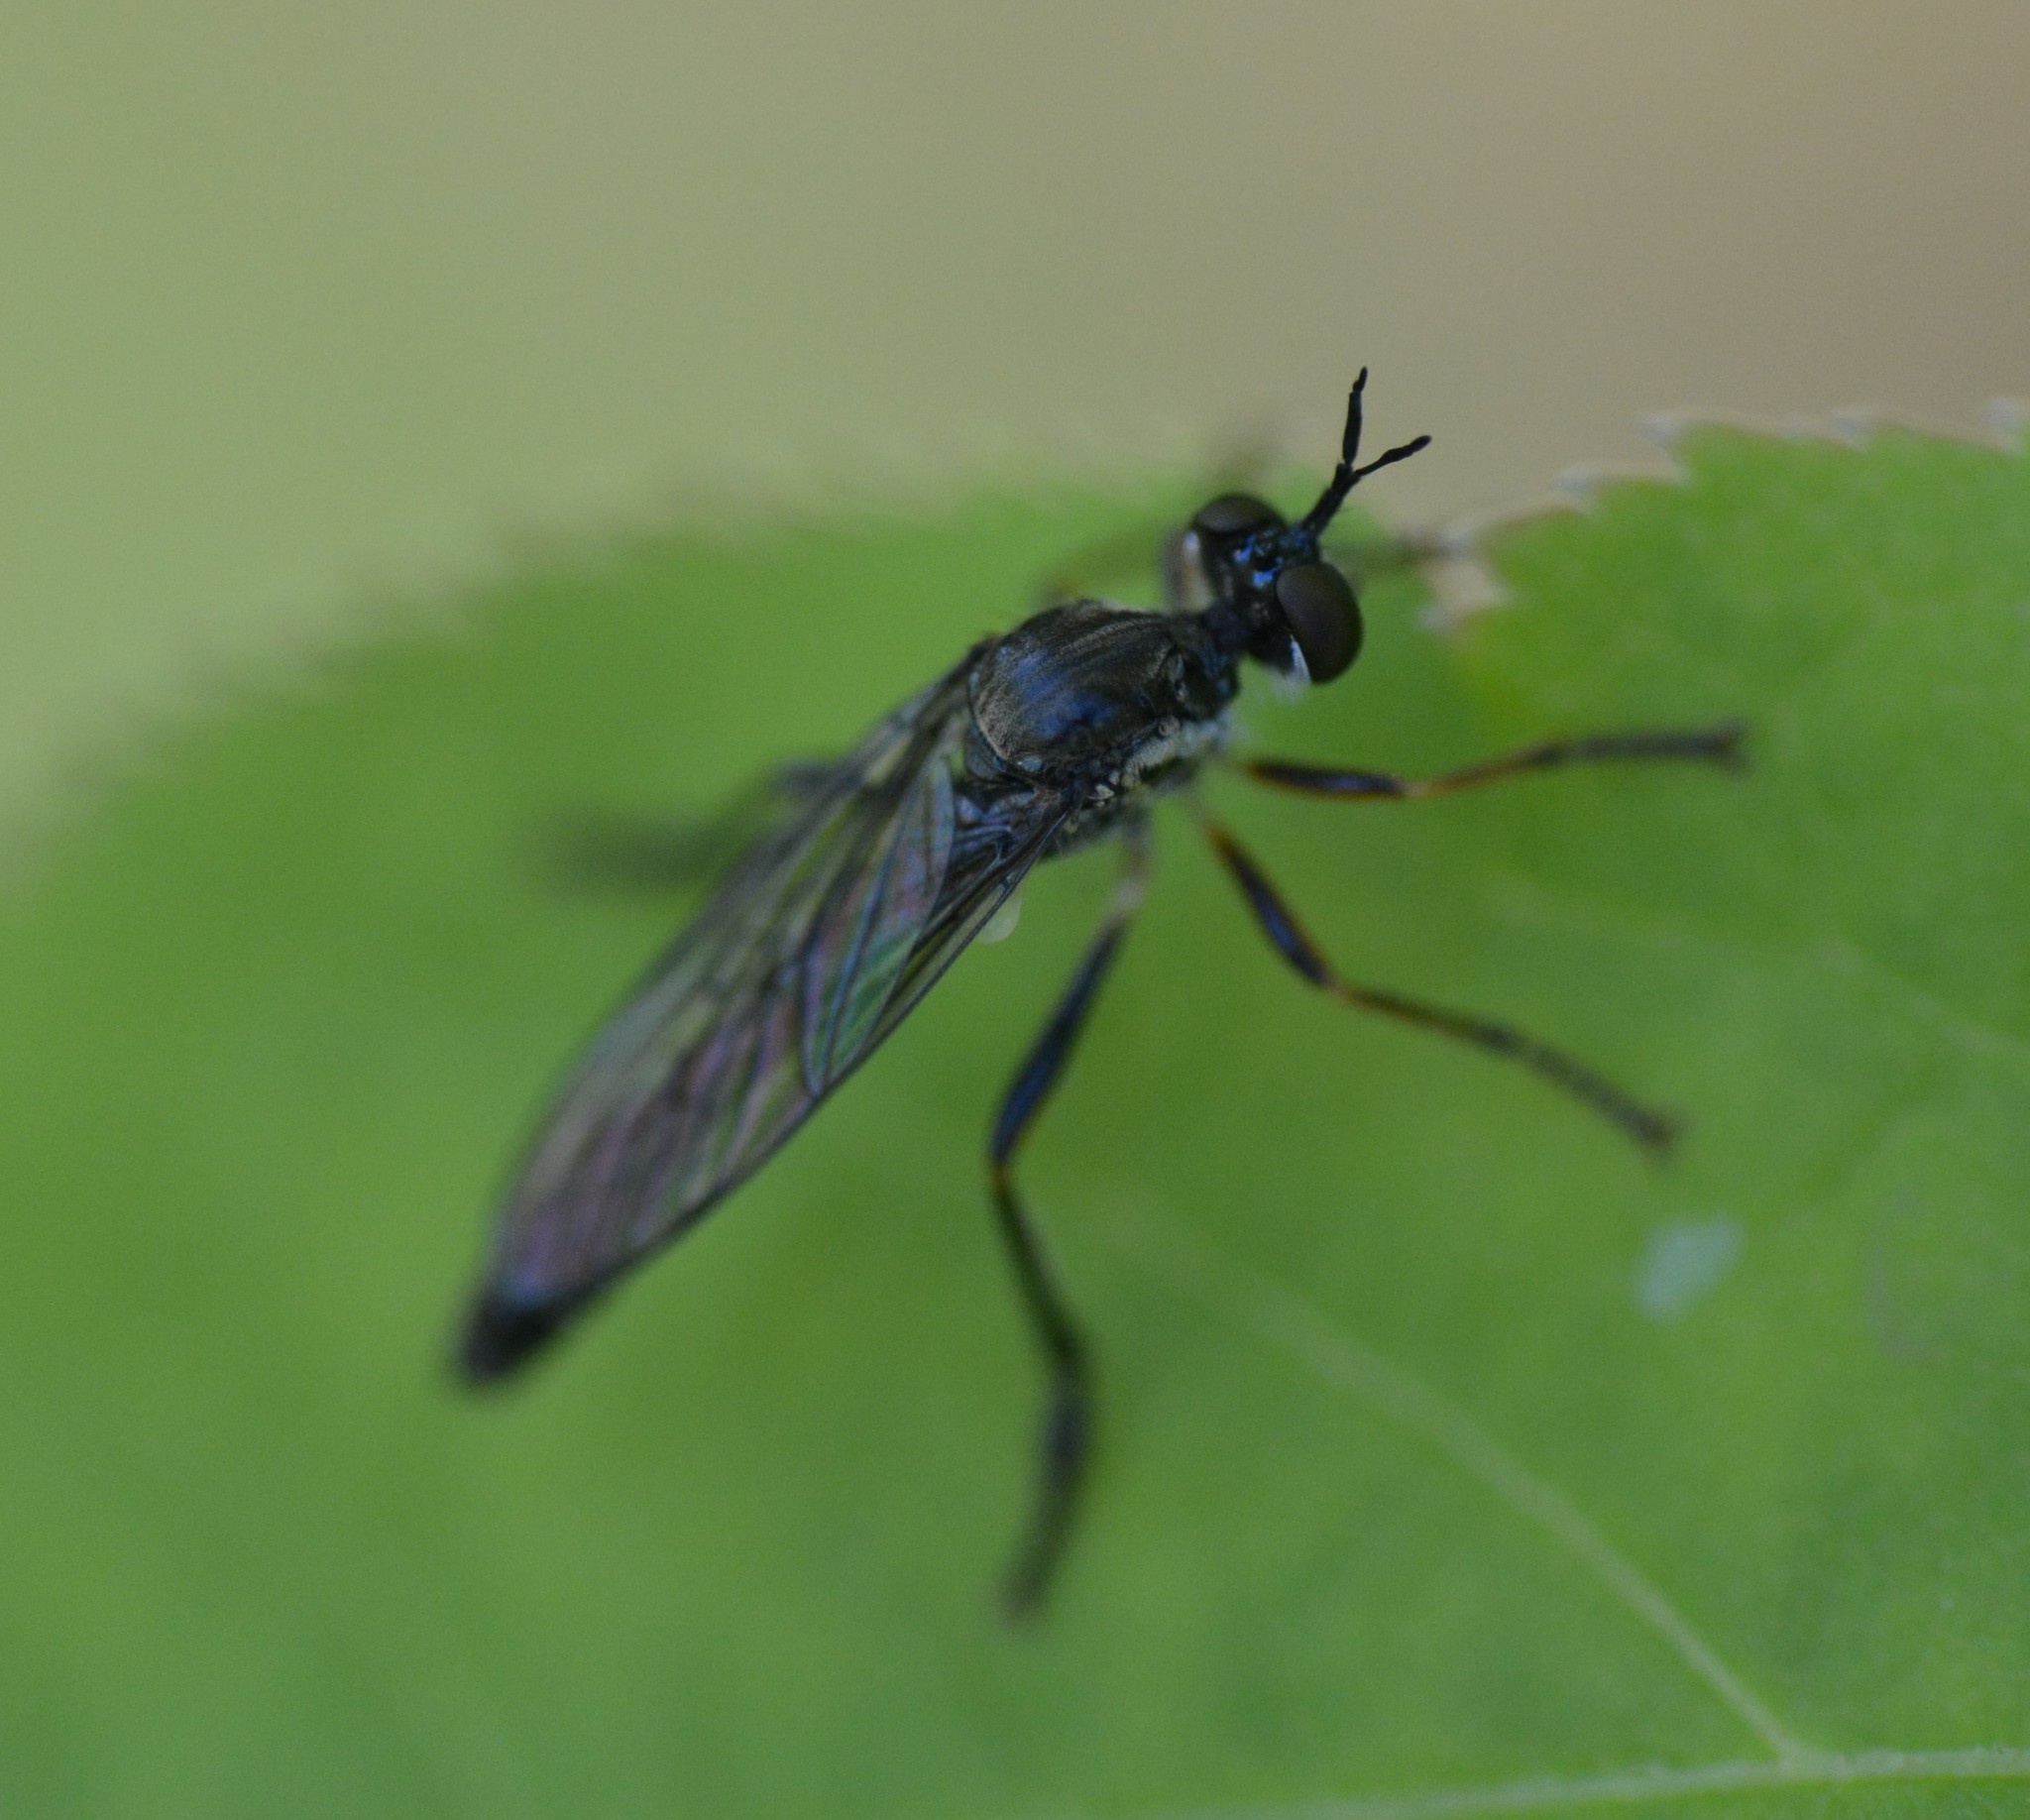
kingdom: Animalia
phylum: Arthropoda
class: Insecta
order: Diptera
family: Asilidae
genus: Dioctria
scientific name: Dioctria hyalipennis
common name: Stripe-legged robberfly
